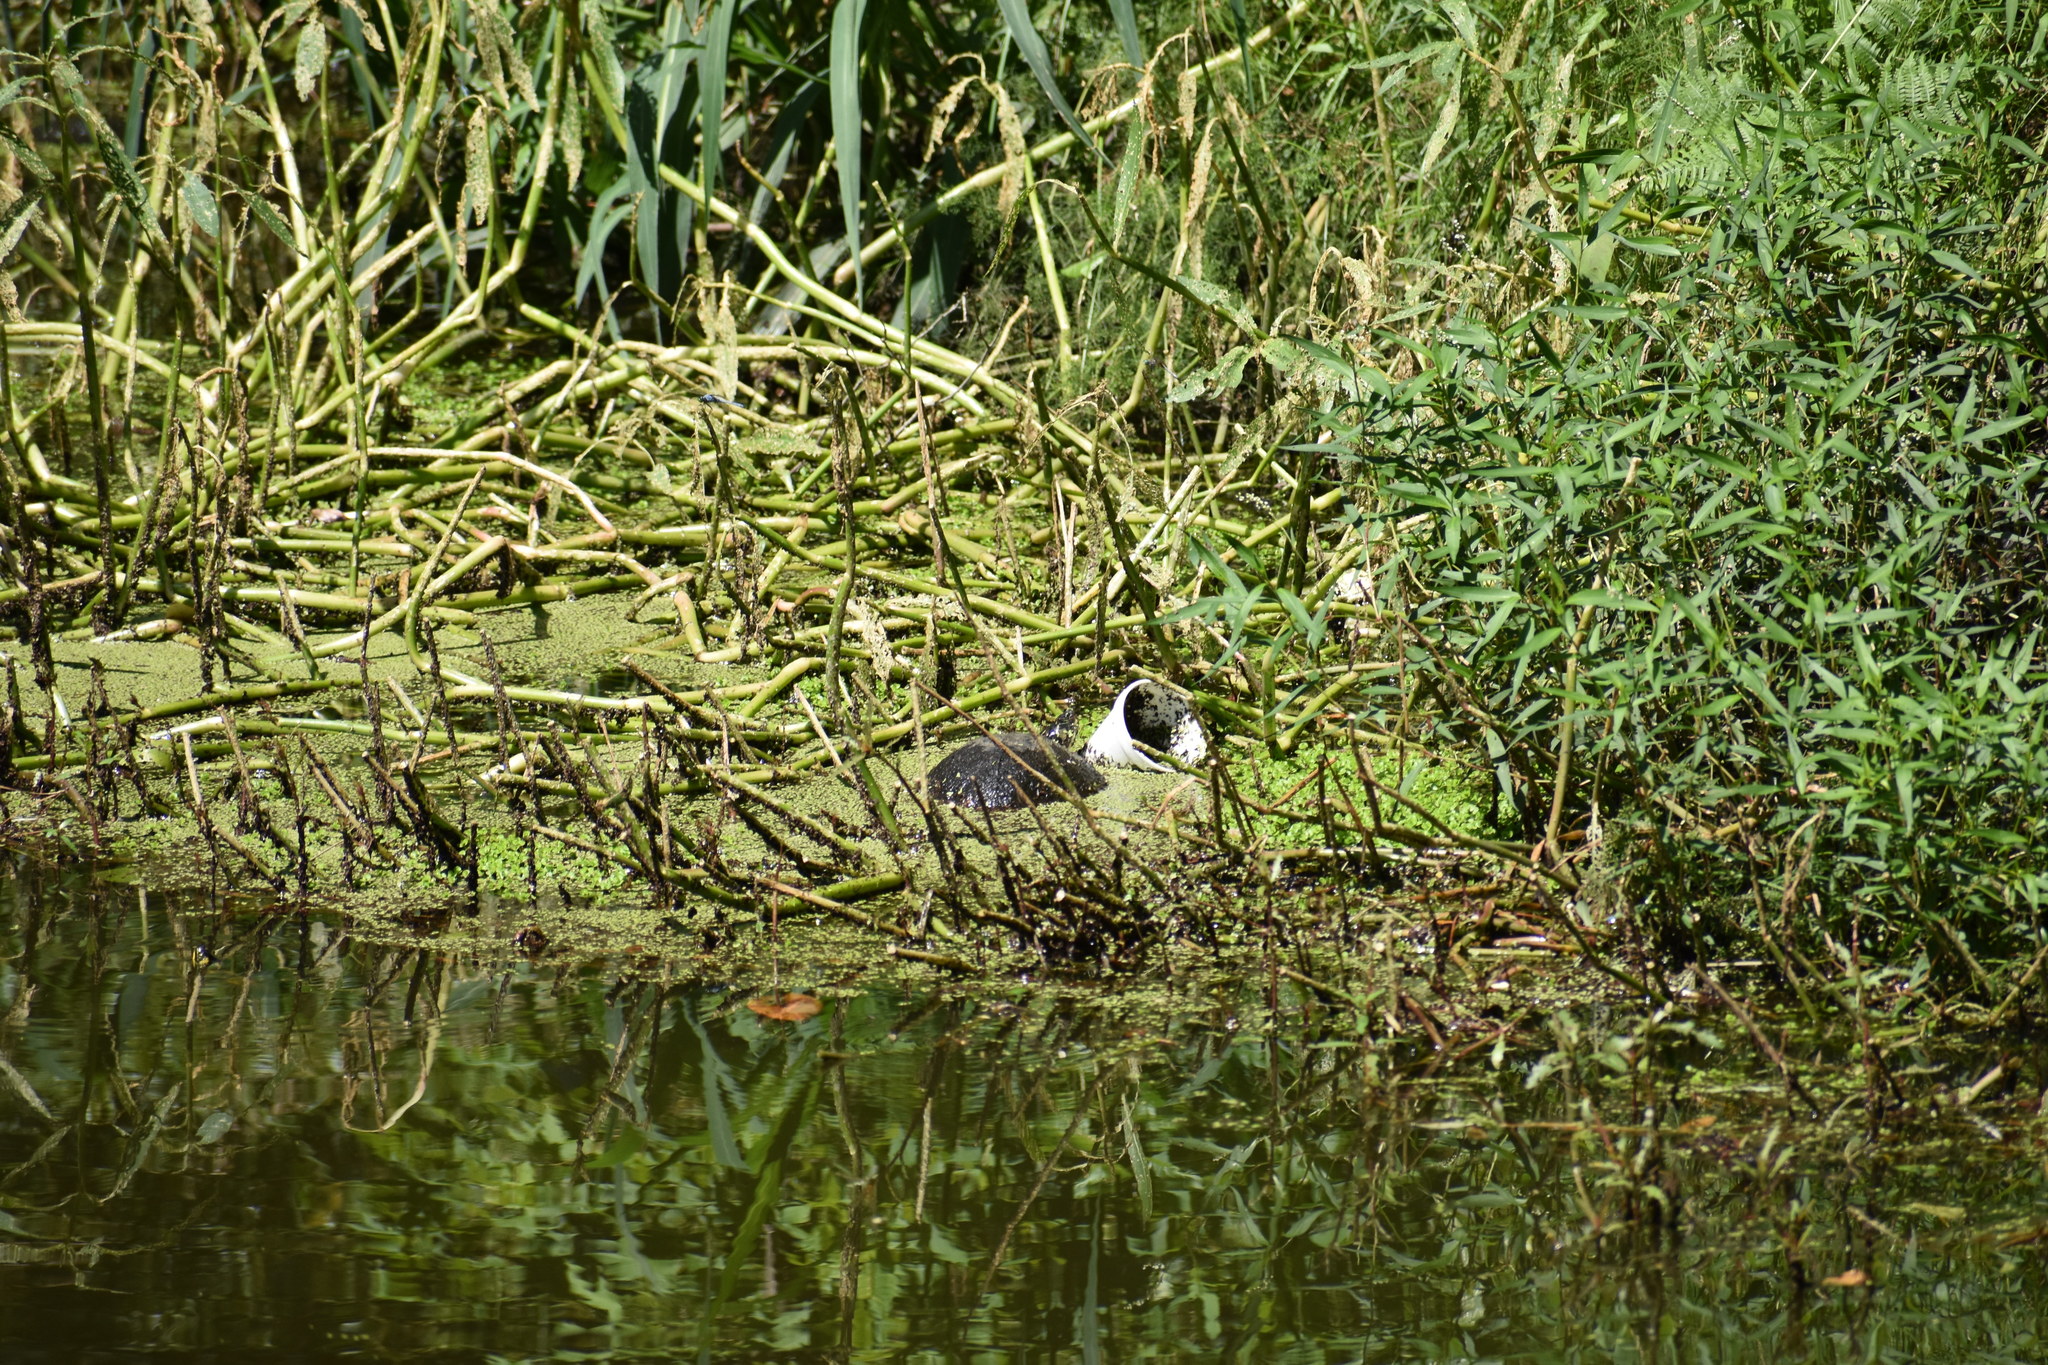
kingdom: Animalia
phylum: Chordata
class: Testudines
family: Emydidae
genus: Trachemys
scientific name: Trachemys scripta
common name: Slider
